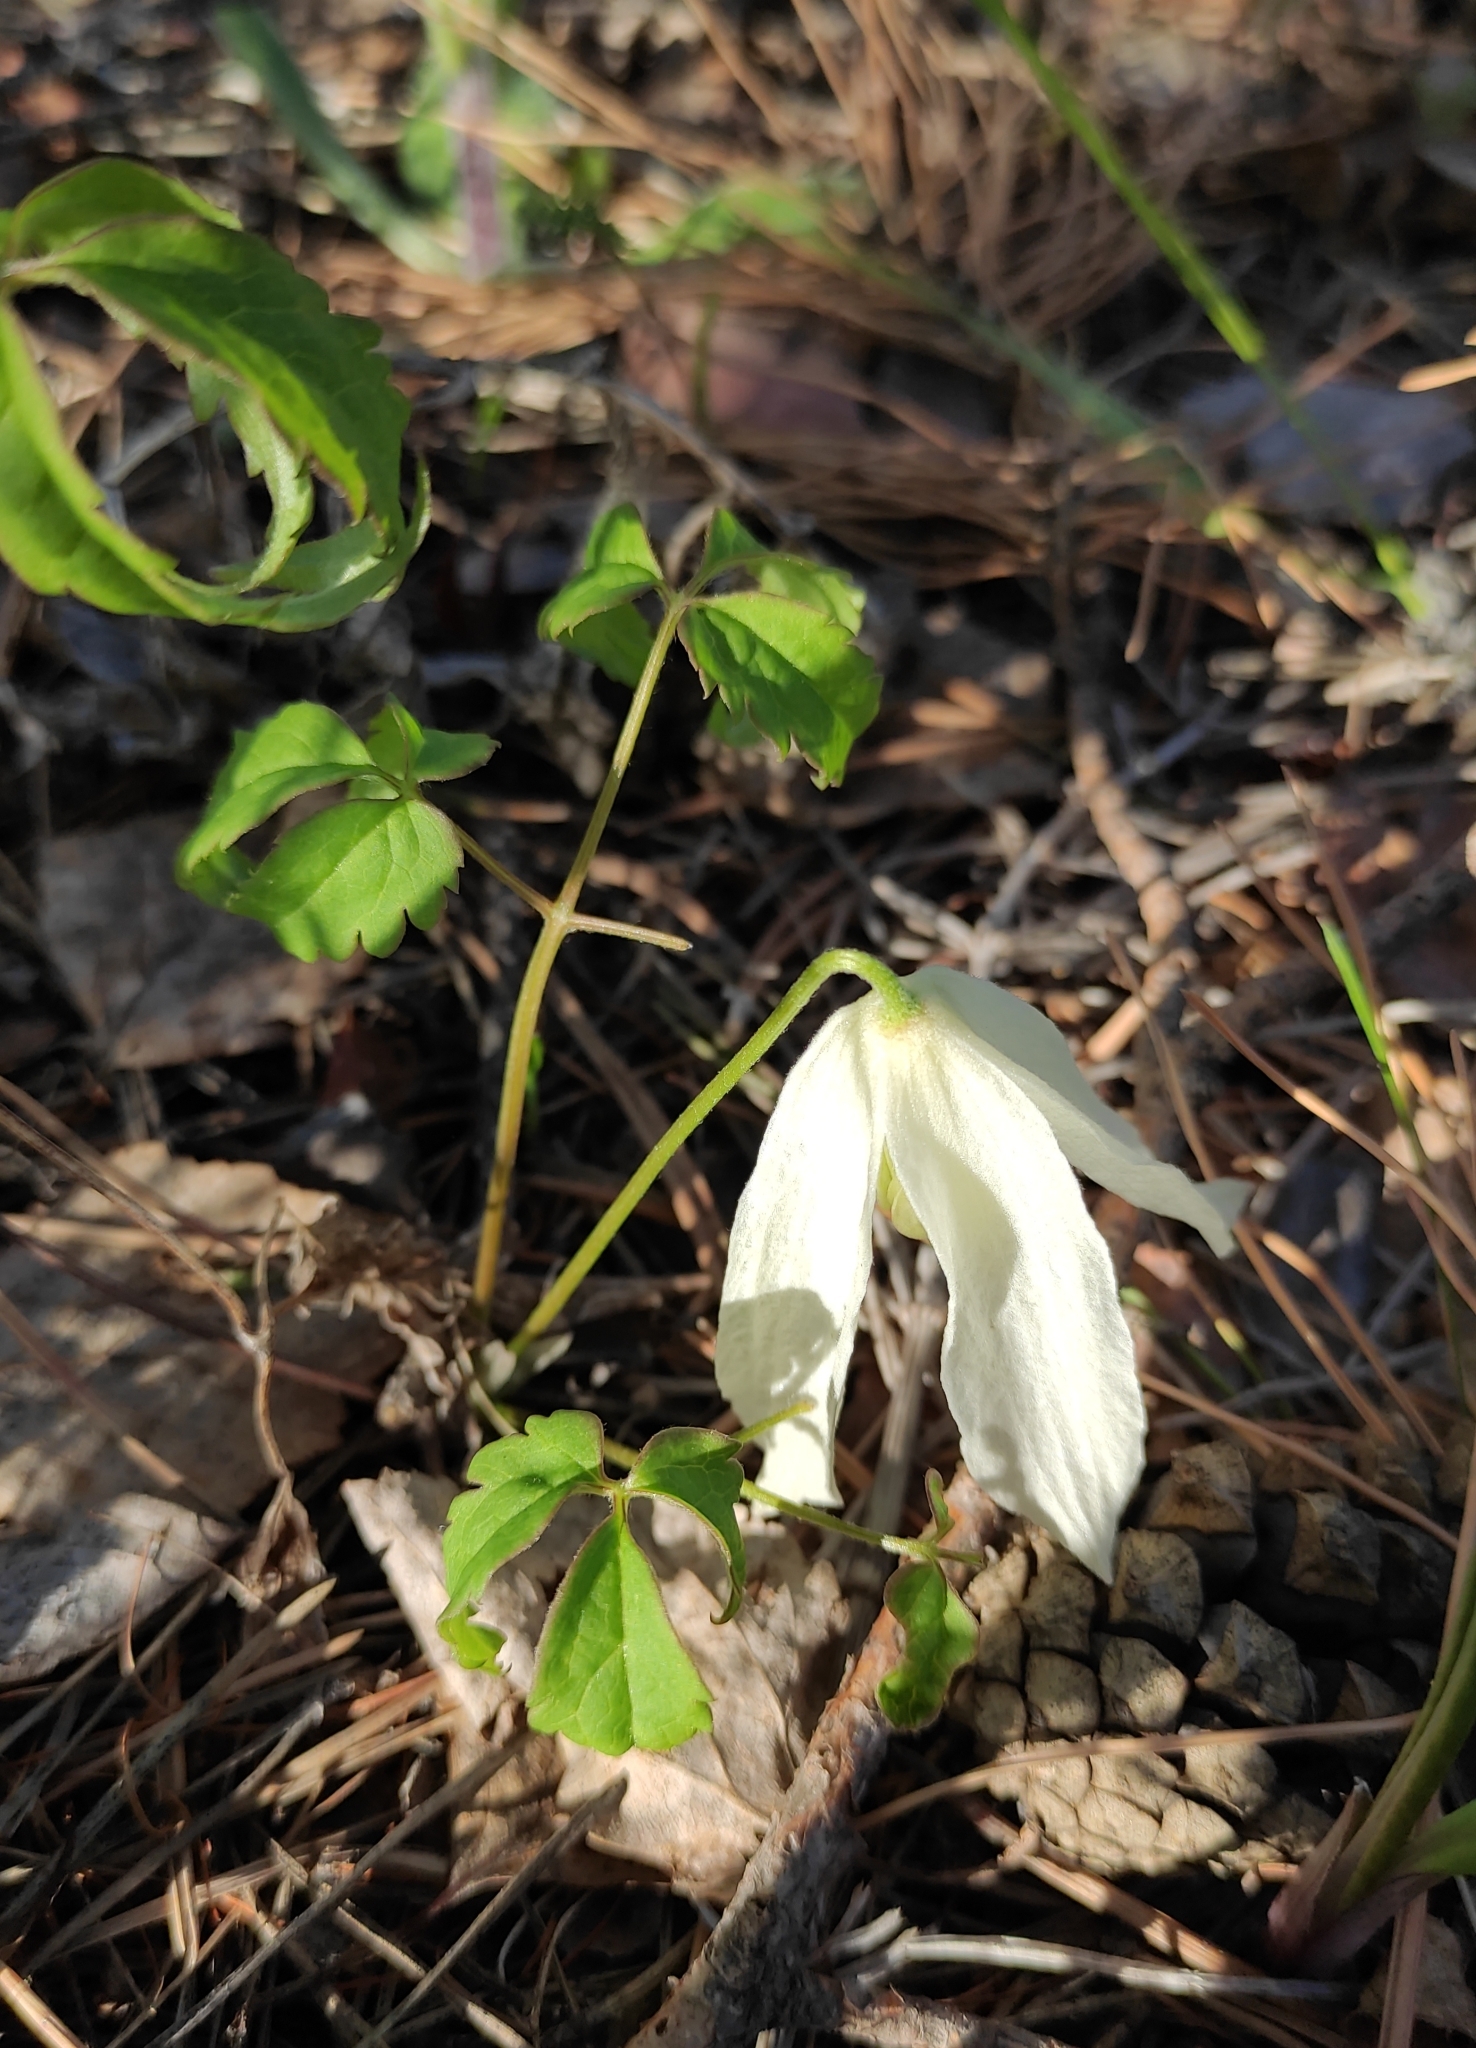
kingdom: Plantae
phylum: Tracheophyta
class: Magnoliopsida
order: Ranunculales
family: Ranunculaceae
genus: Clematis
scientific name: Clematis sibirica
